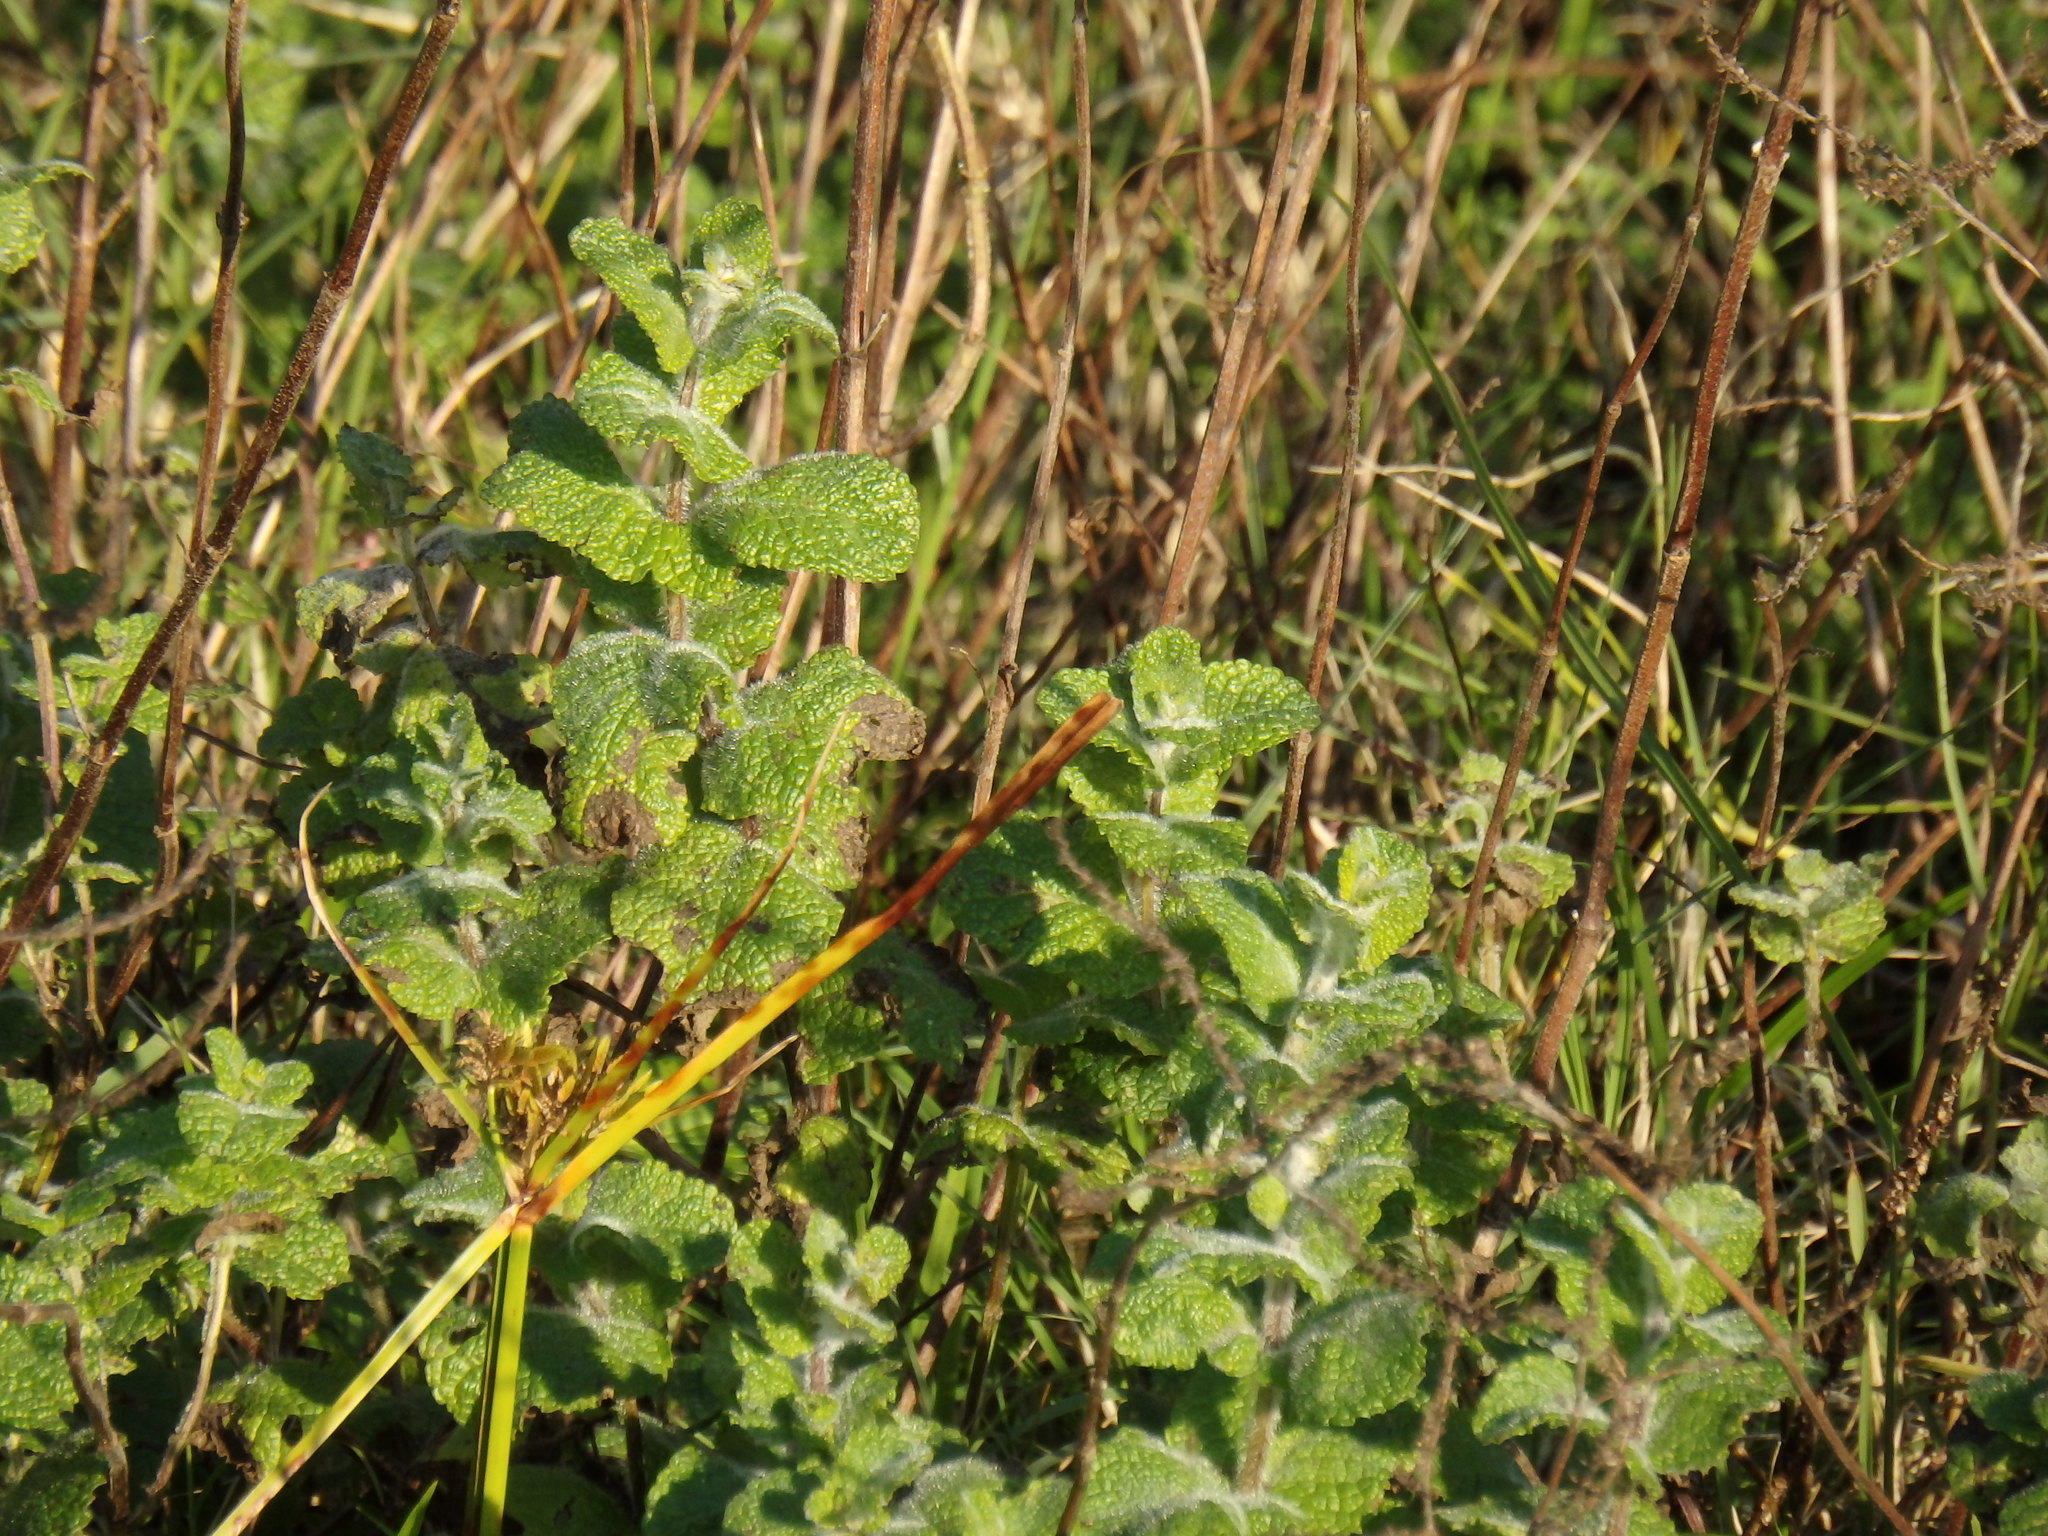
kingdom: Plantae
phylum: Tracheophyta
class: Magnoliopsida
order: Lamiales
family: Lamiaceae
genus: Mentha
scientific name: Mentha suaveolens
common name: Apple mint
